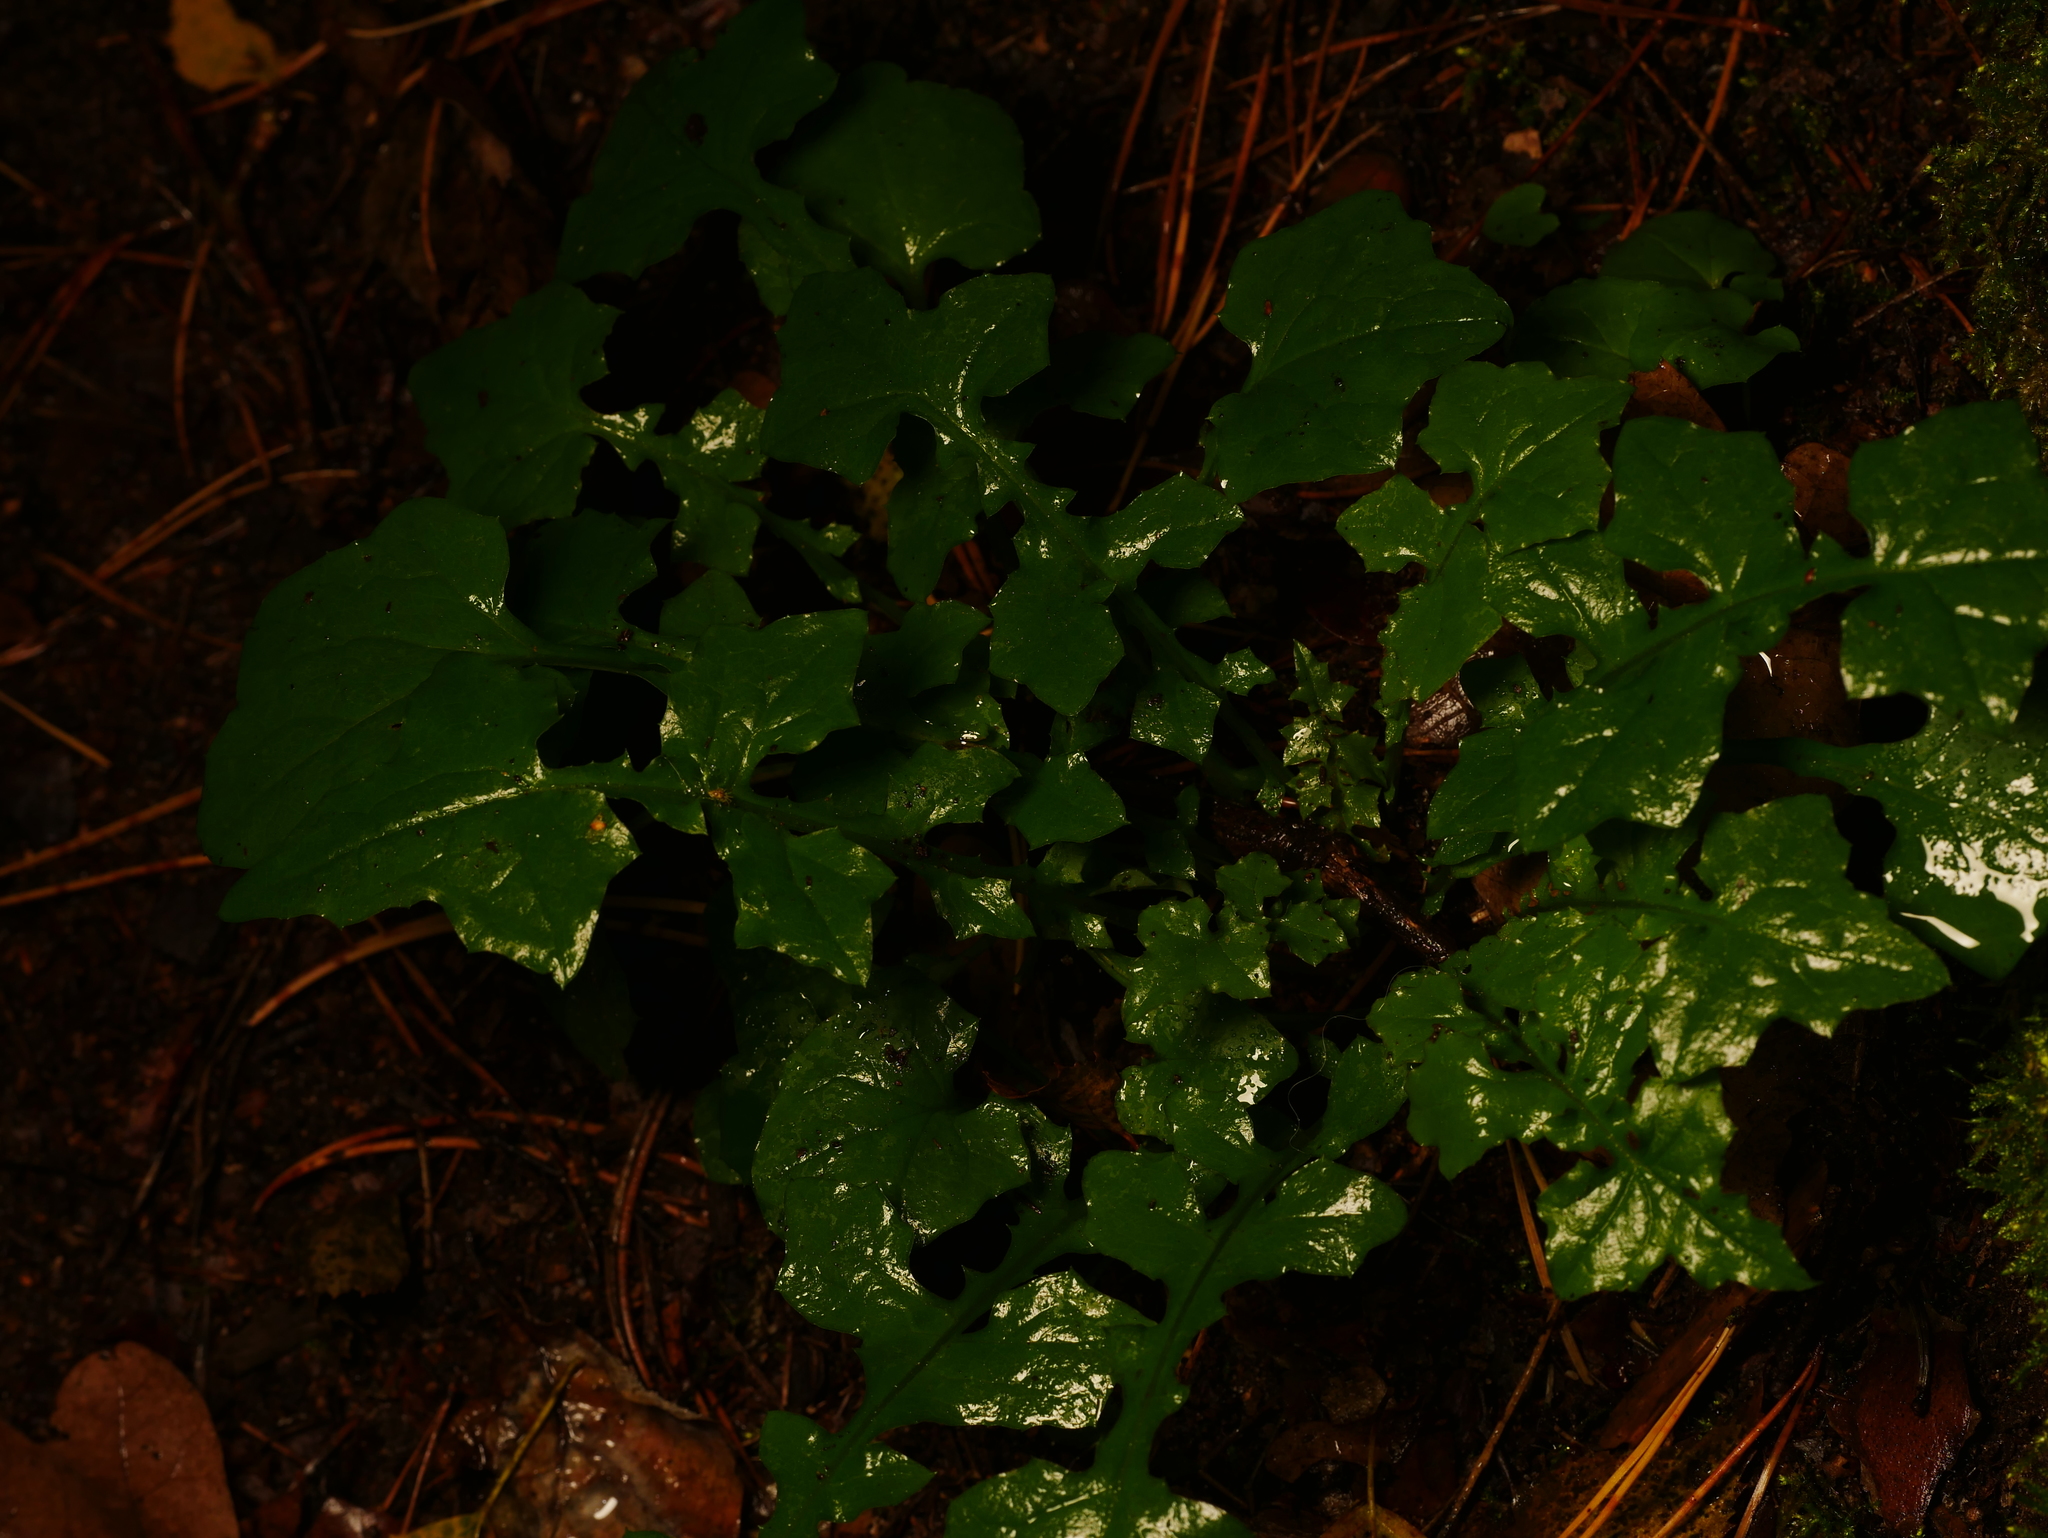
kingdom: Plantae
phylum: Tracheophyta
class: Magnoliopsida
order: Asterales
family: Asteraceae
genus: Mycelis
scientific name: Mycelis muralis
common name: Wall lettuce
